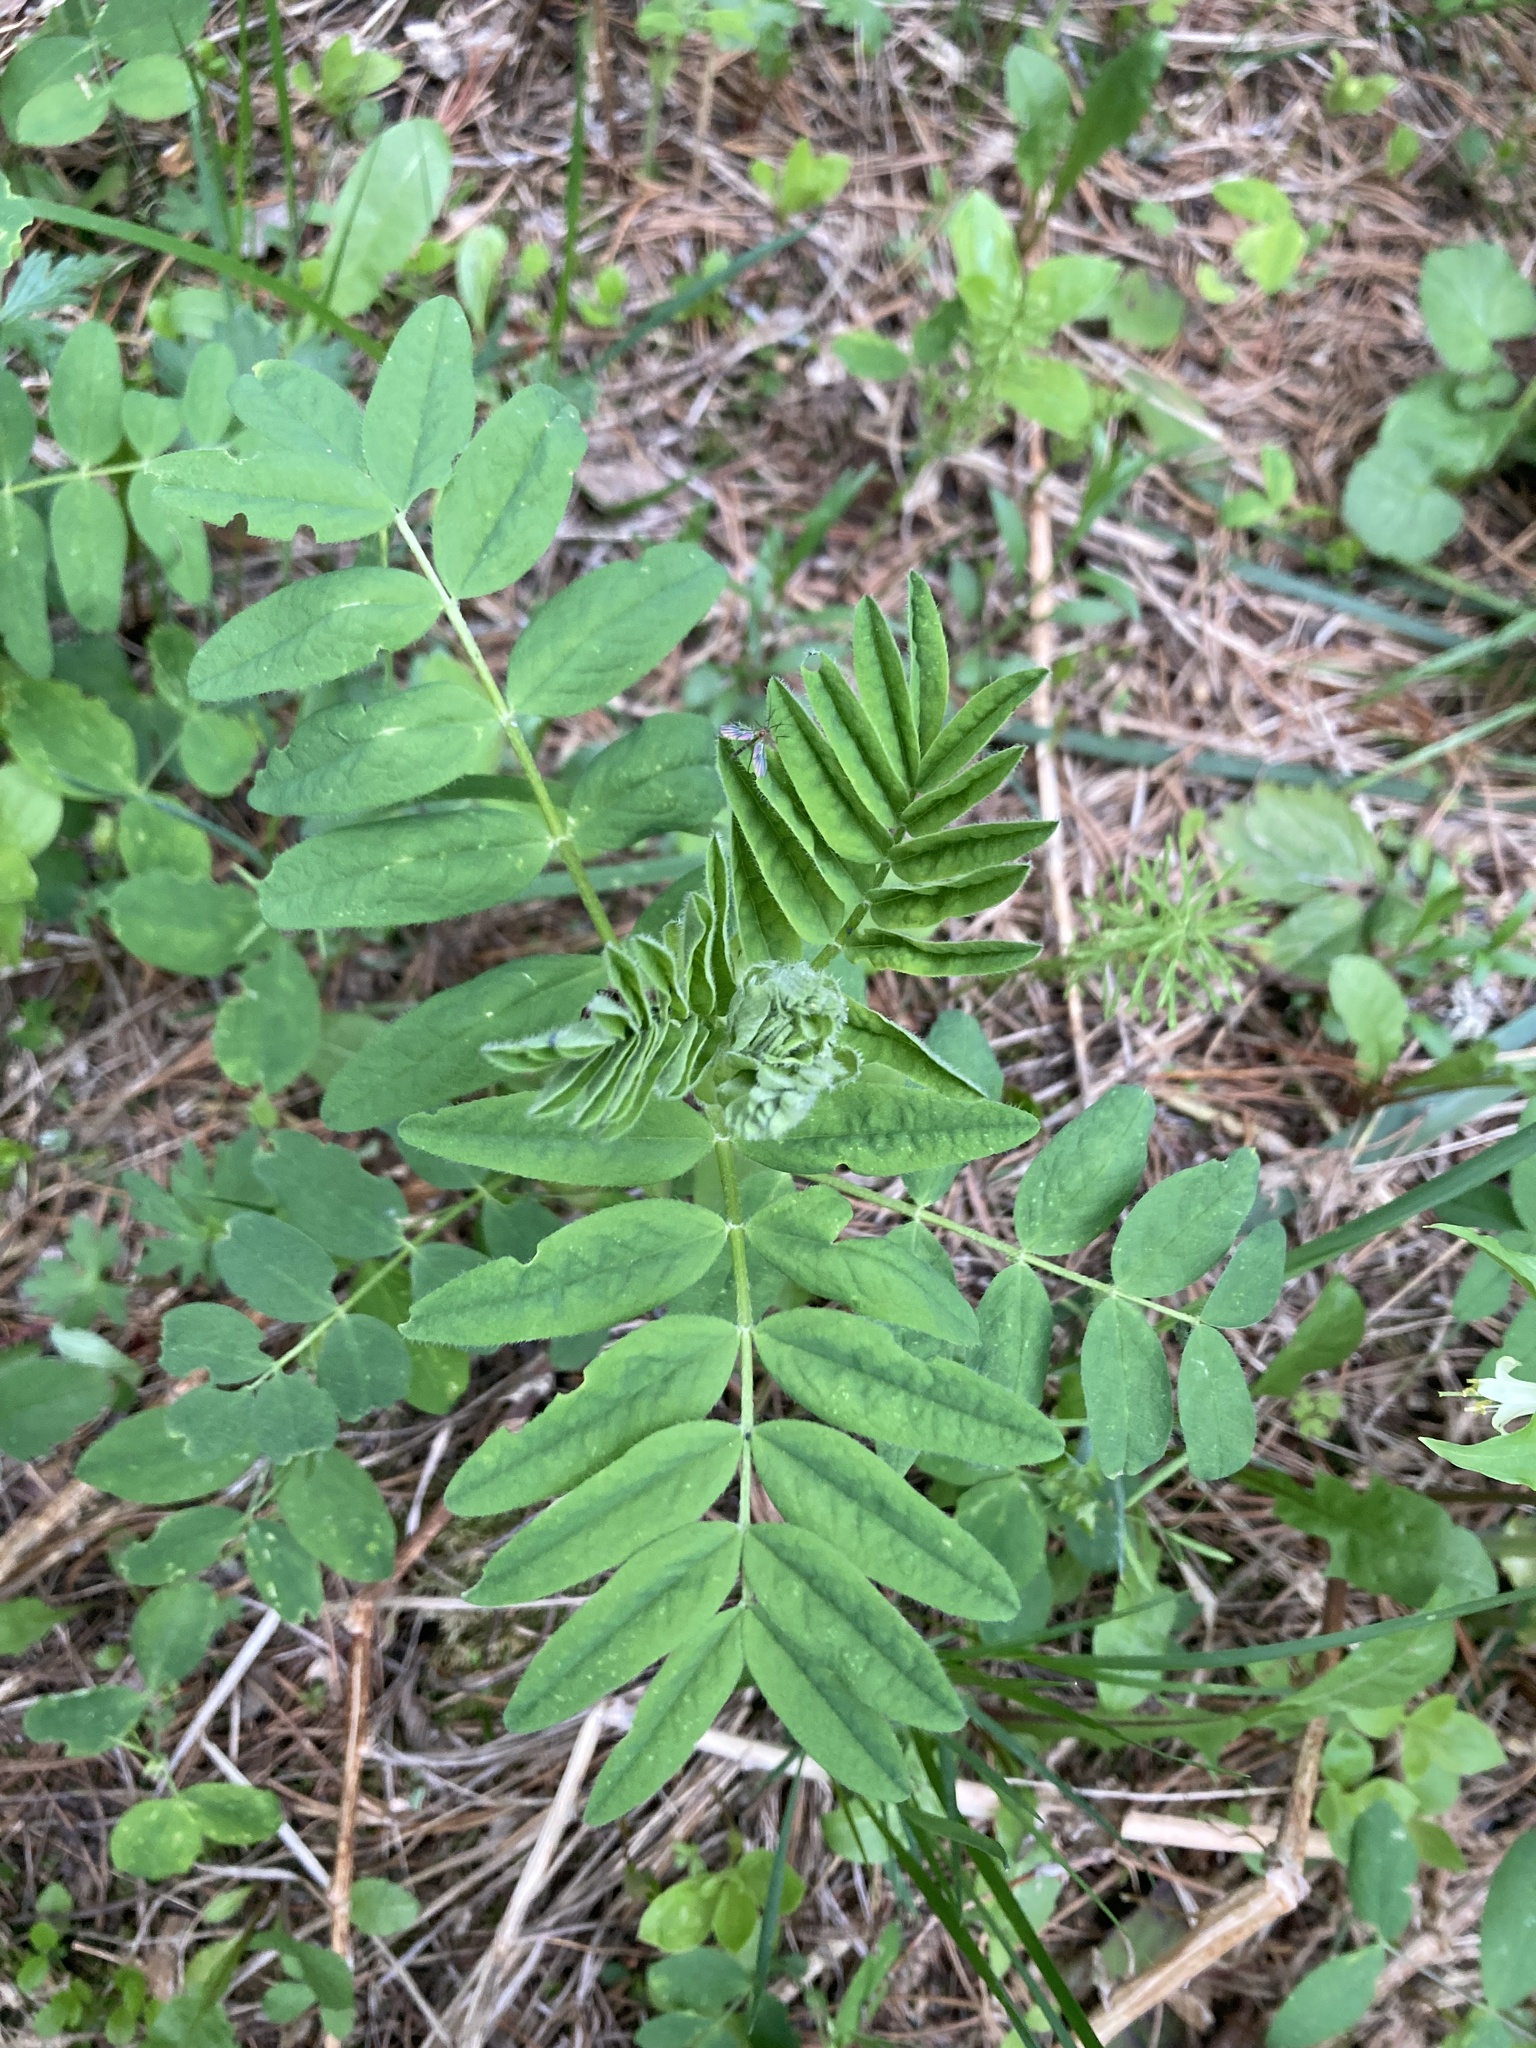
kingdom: Plantae
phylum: Tracheophyta
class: Magnoliopsida
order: Fabales
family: Fabaceae
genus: Astragalus
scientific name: Astragalus americanus
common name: American milk-vetch
